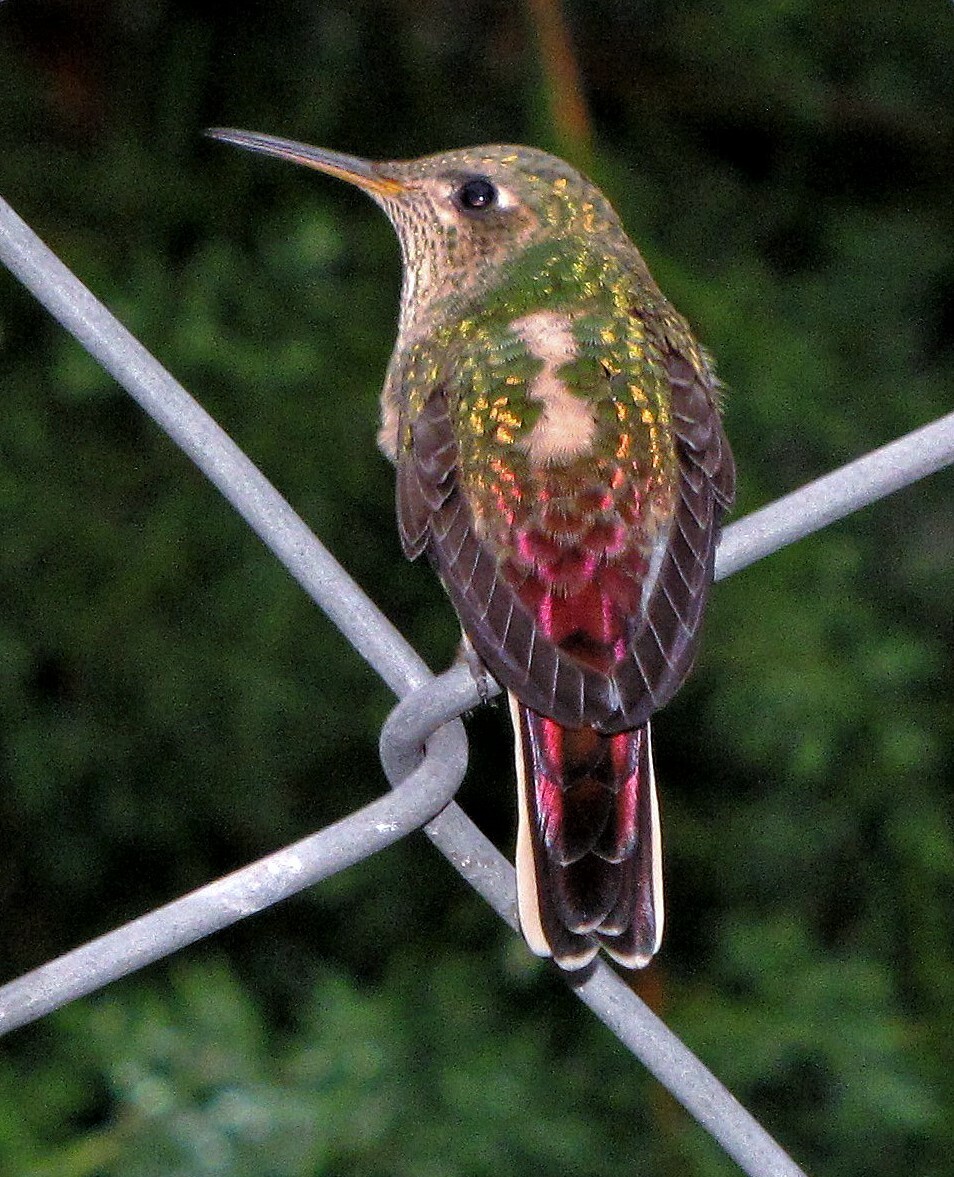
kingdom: Animalia
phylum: Chordata
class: Aves
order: Apodiformes
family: Trochilidae
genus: Sappho
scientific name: Sappho sparganurus
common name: Red-tailed comet
